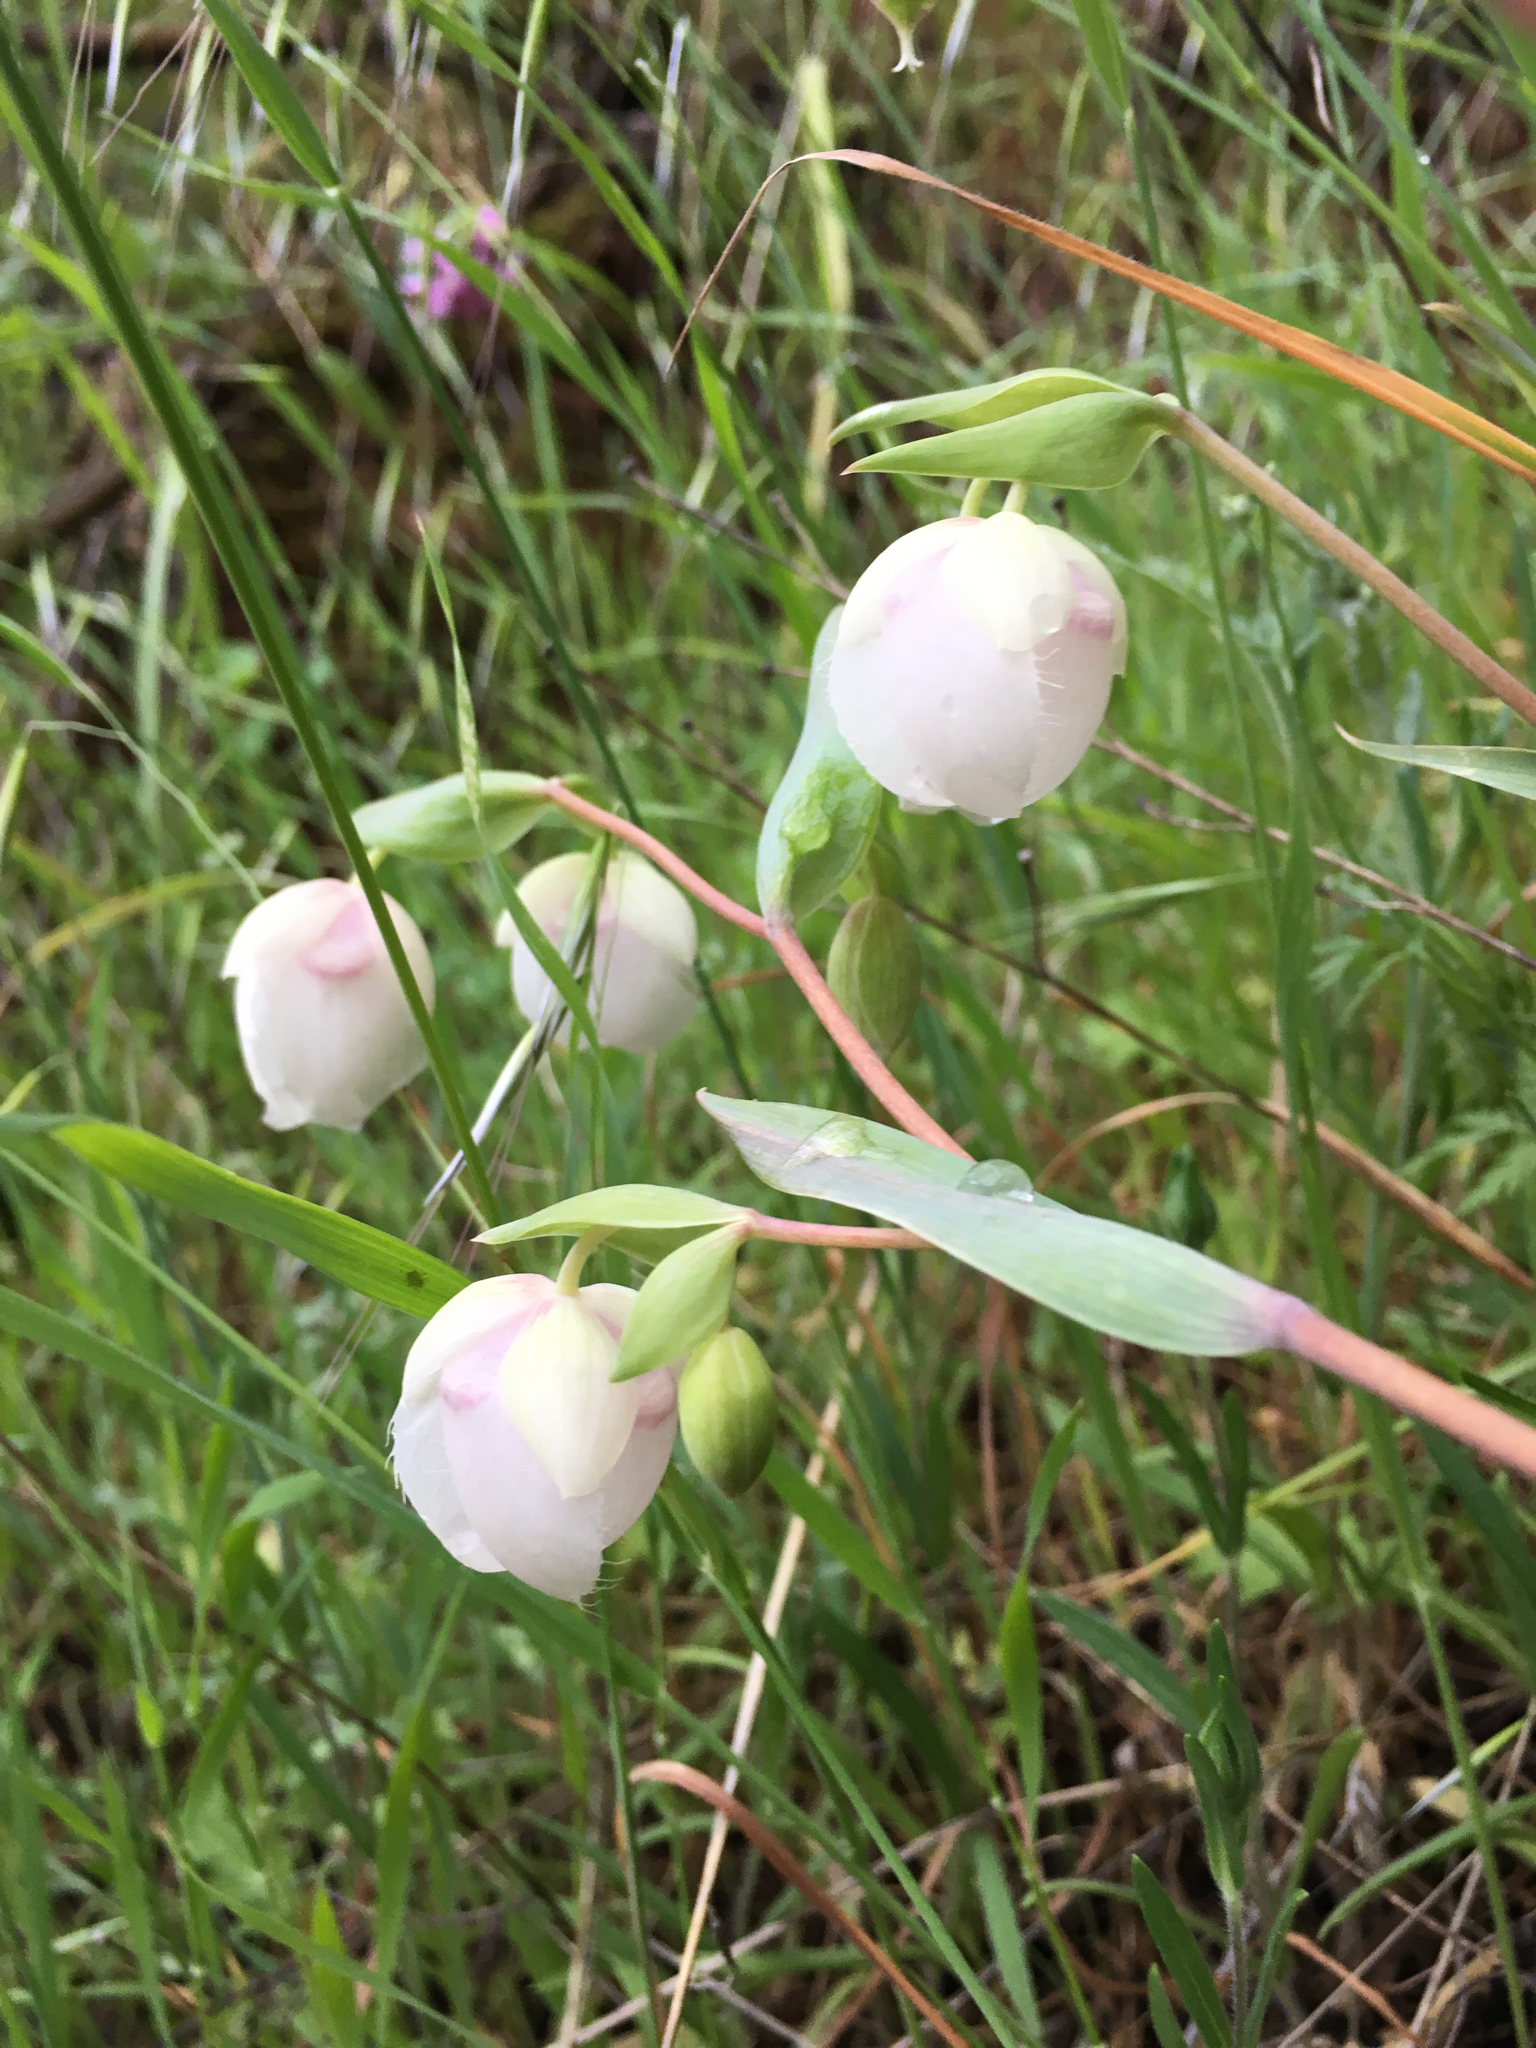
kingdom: Plantae
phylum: Tracheophyta
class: Liliopsida
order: Liliales
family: Liliaceae
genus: Calochortus
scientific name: Calochortus albus
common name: Fairy-lantern
